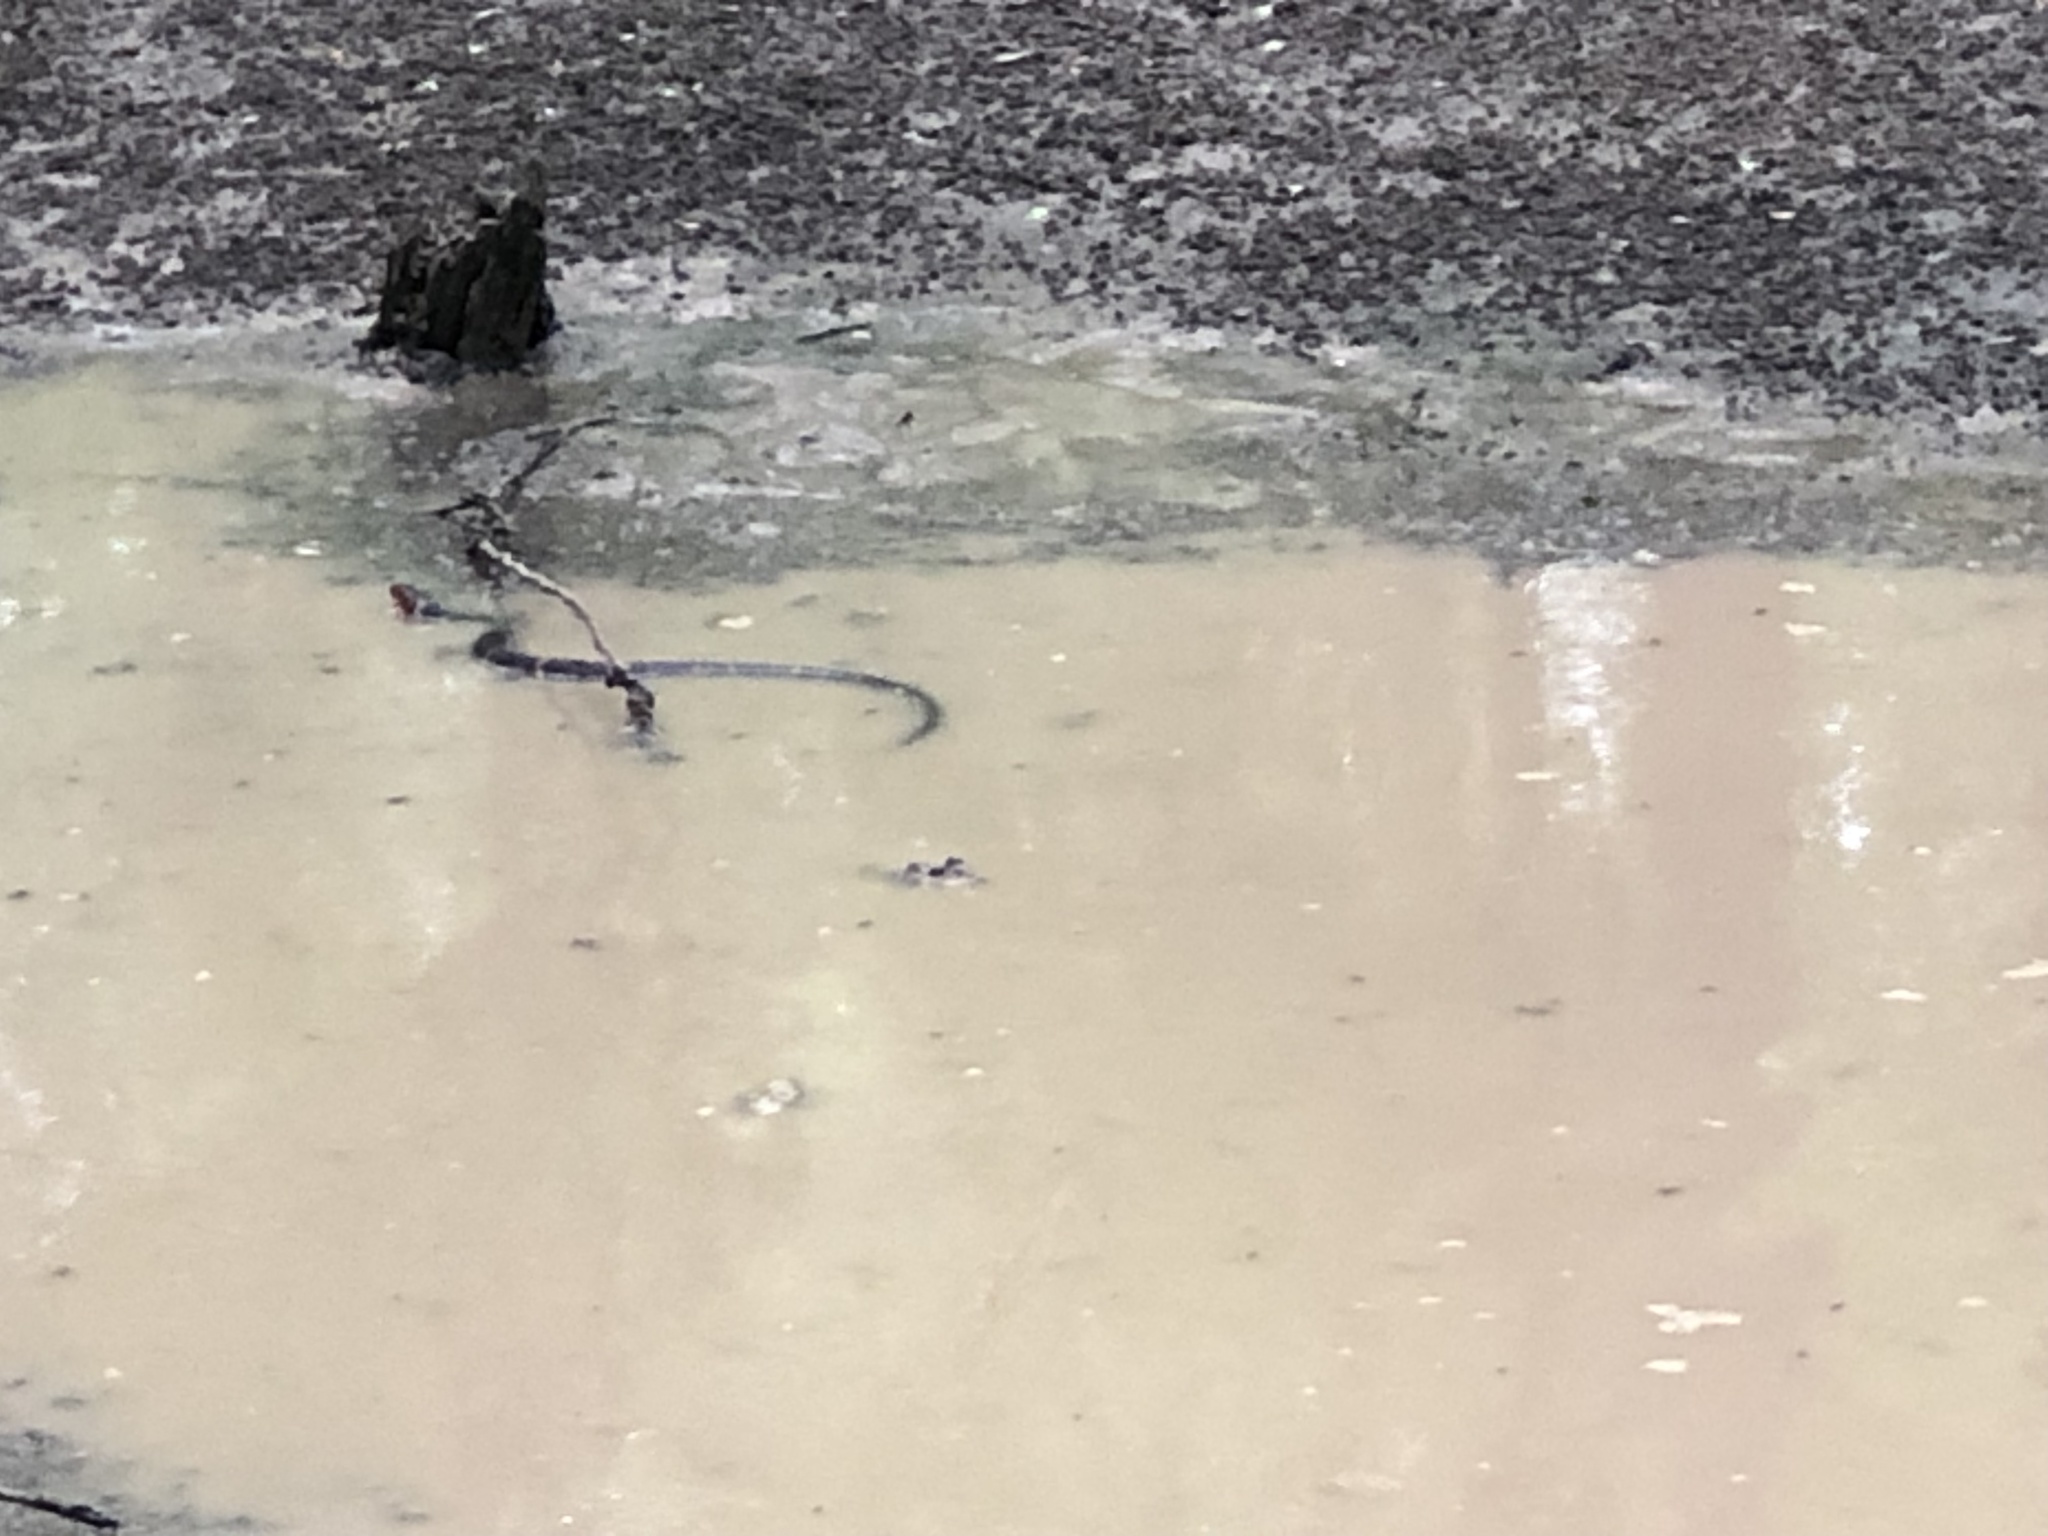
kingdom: Animalia
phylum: Chordata
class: Squamata
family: Colubridae
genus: Nerodia
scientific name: Nerodia fasciata
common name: Southern water snake
